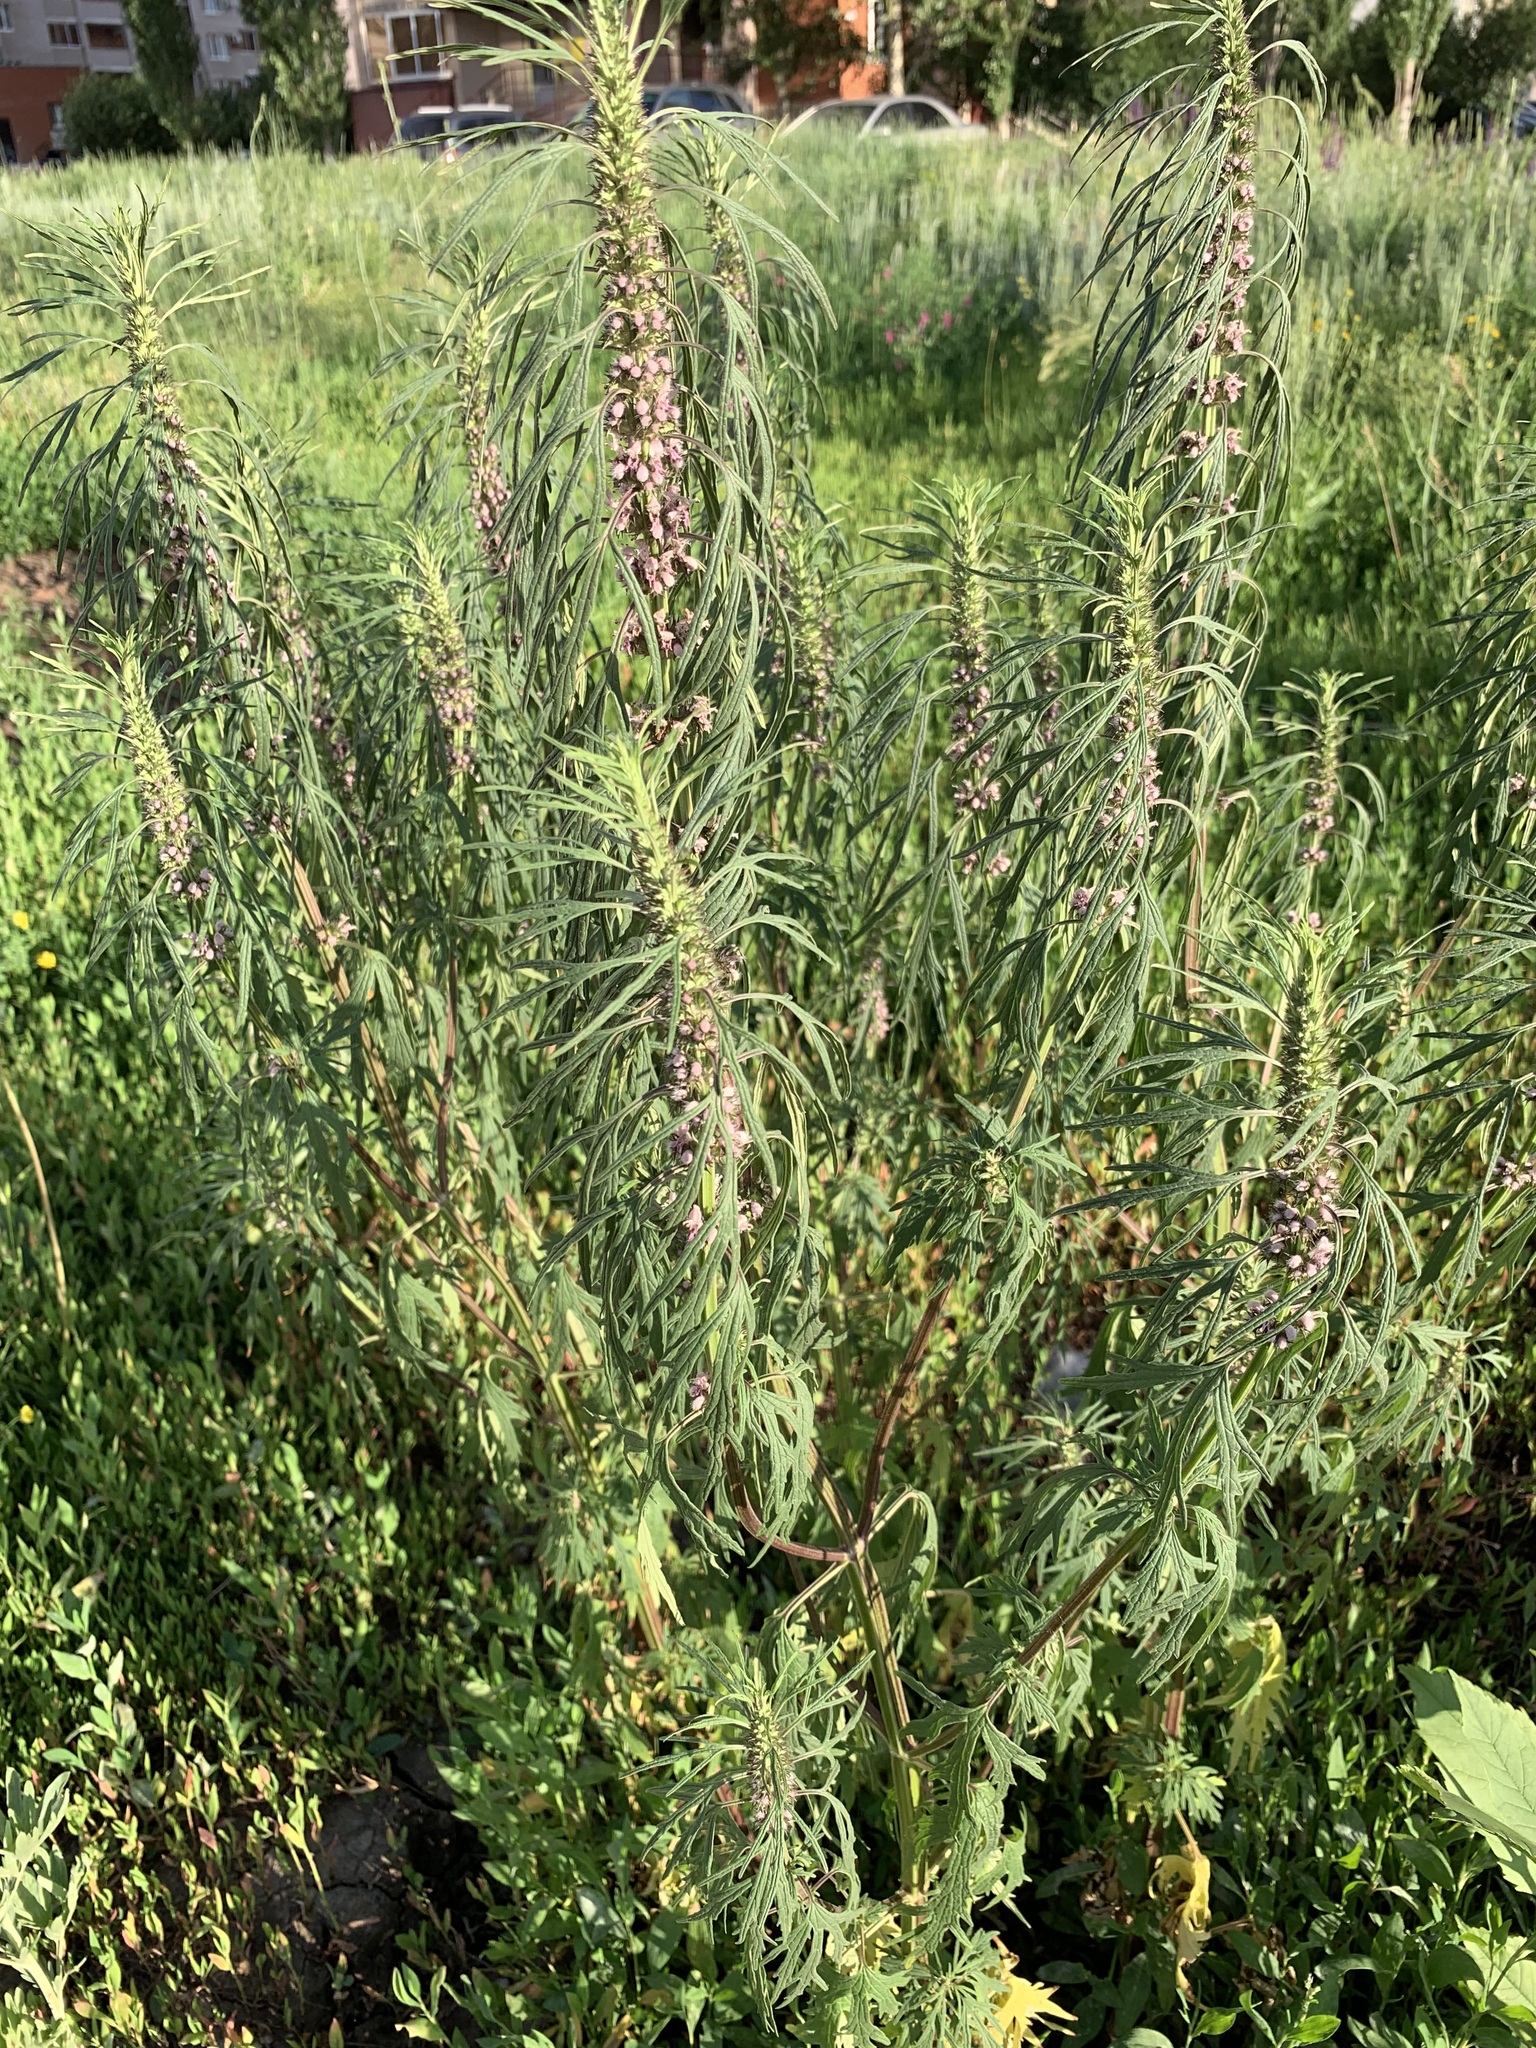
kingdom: Plantae
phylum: Tracheophyta
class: Magnoliopsida
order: Lamiales
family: Lamiaceae
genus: Leonurus
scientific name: Leonurus glaucescens
